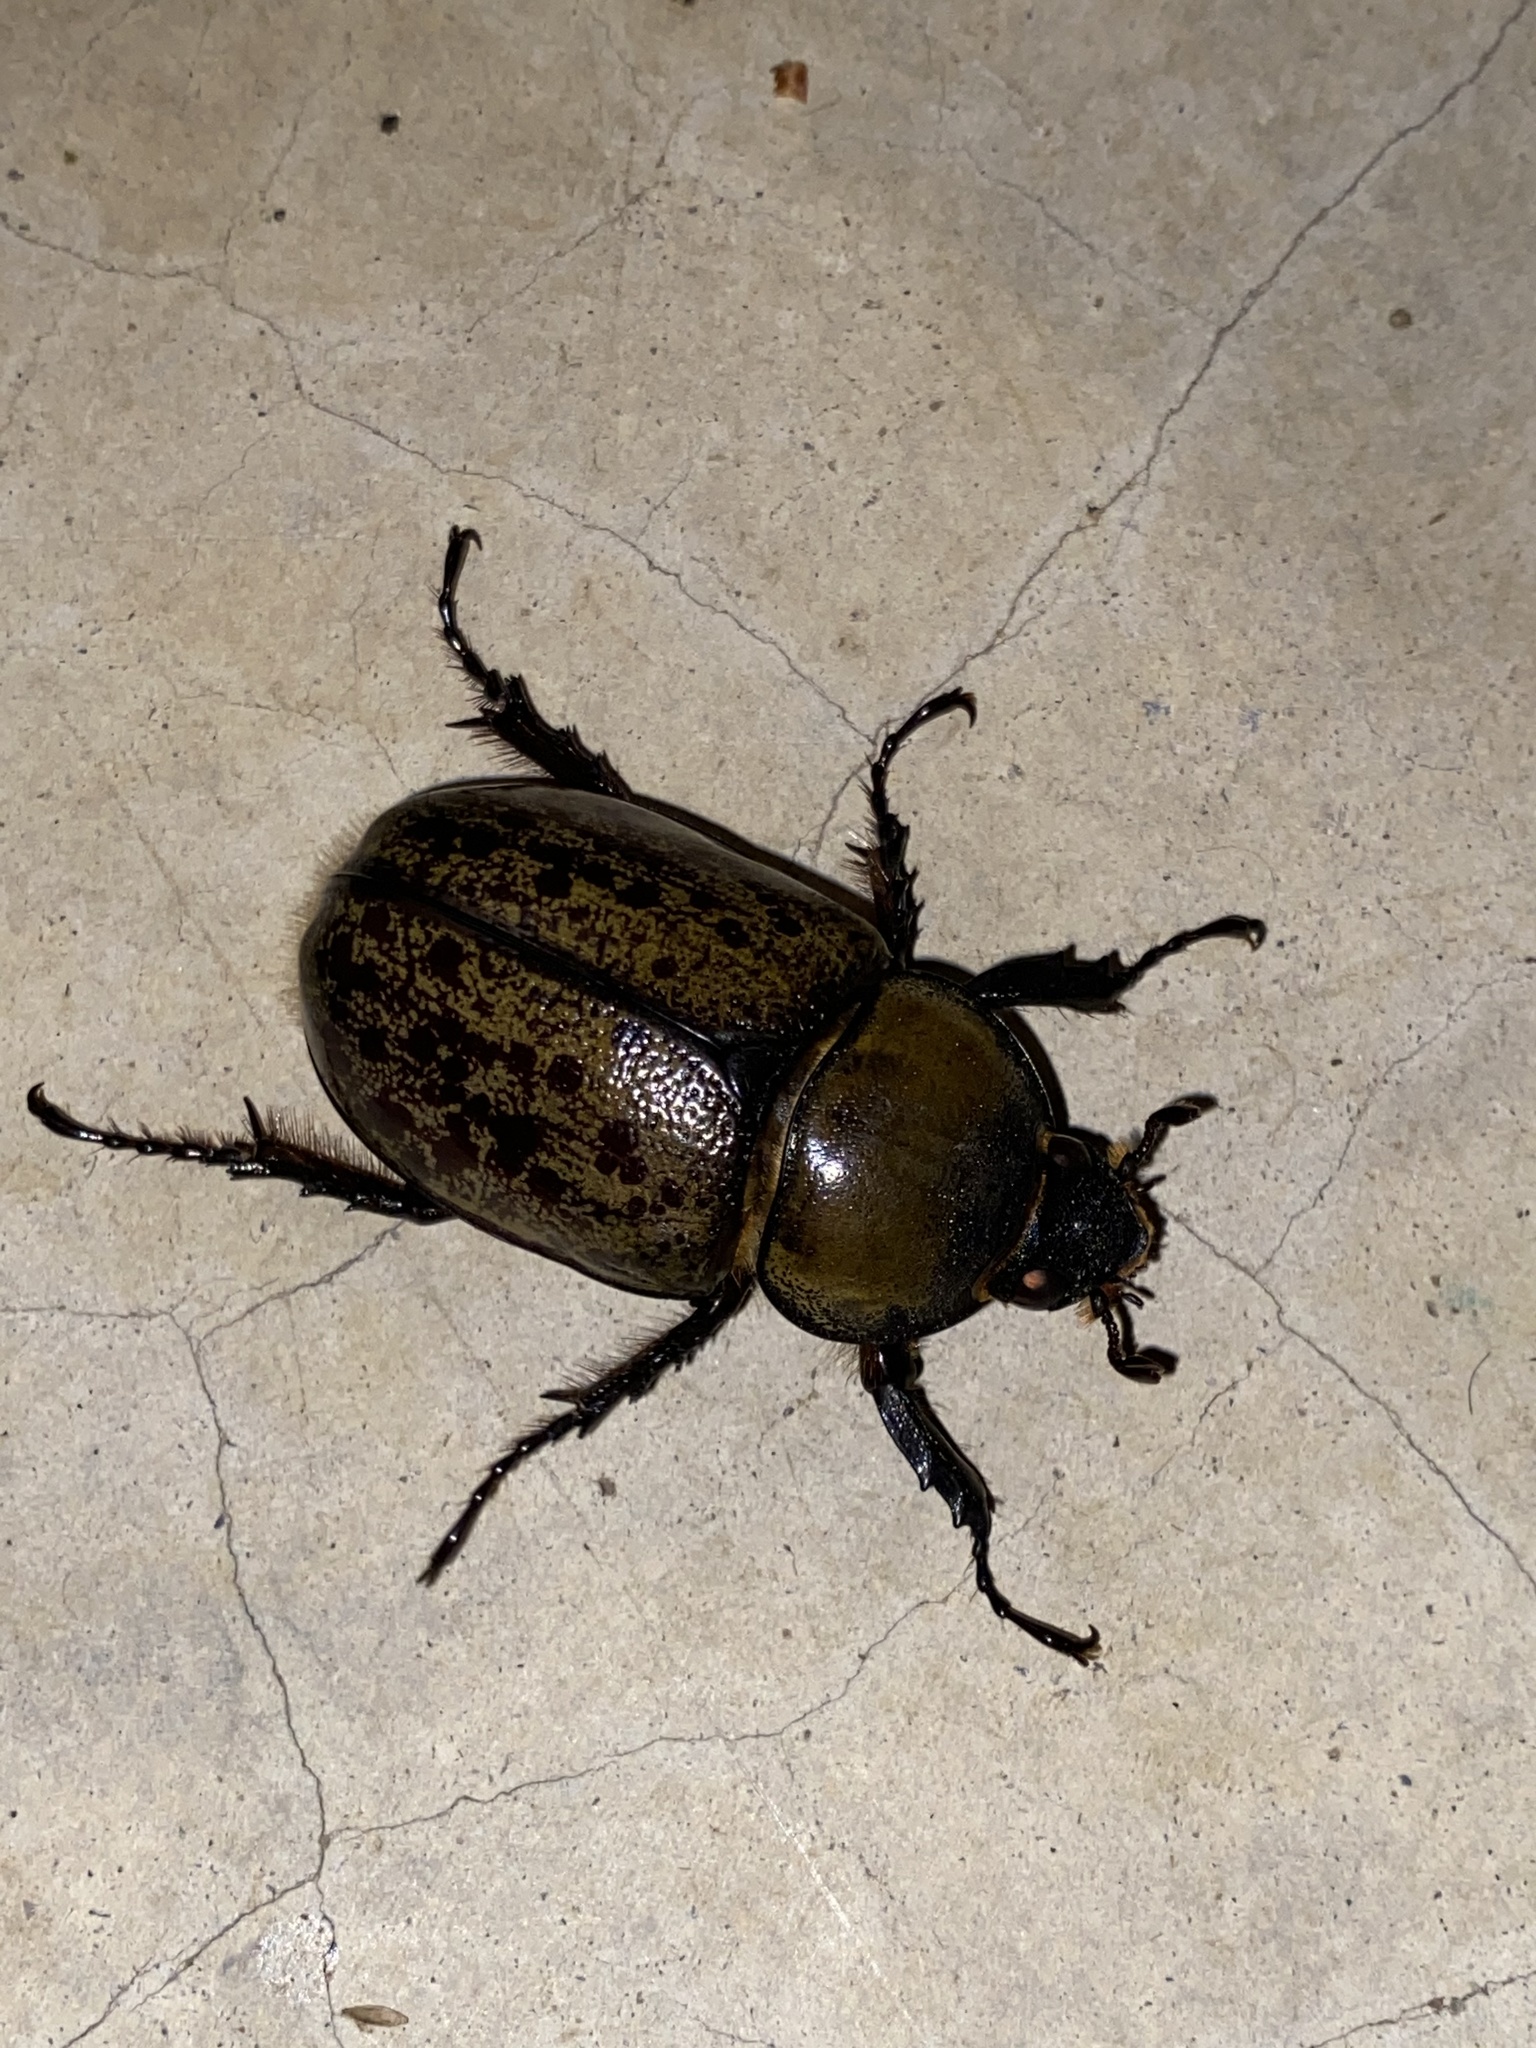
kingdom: Animalia
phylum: Arthropoda
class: Insecta
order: Coleoptera
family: Scarabaeidae
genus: Dynastes
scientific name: Dynastes tityus
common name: Eastern hercules beetle
